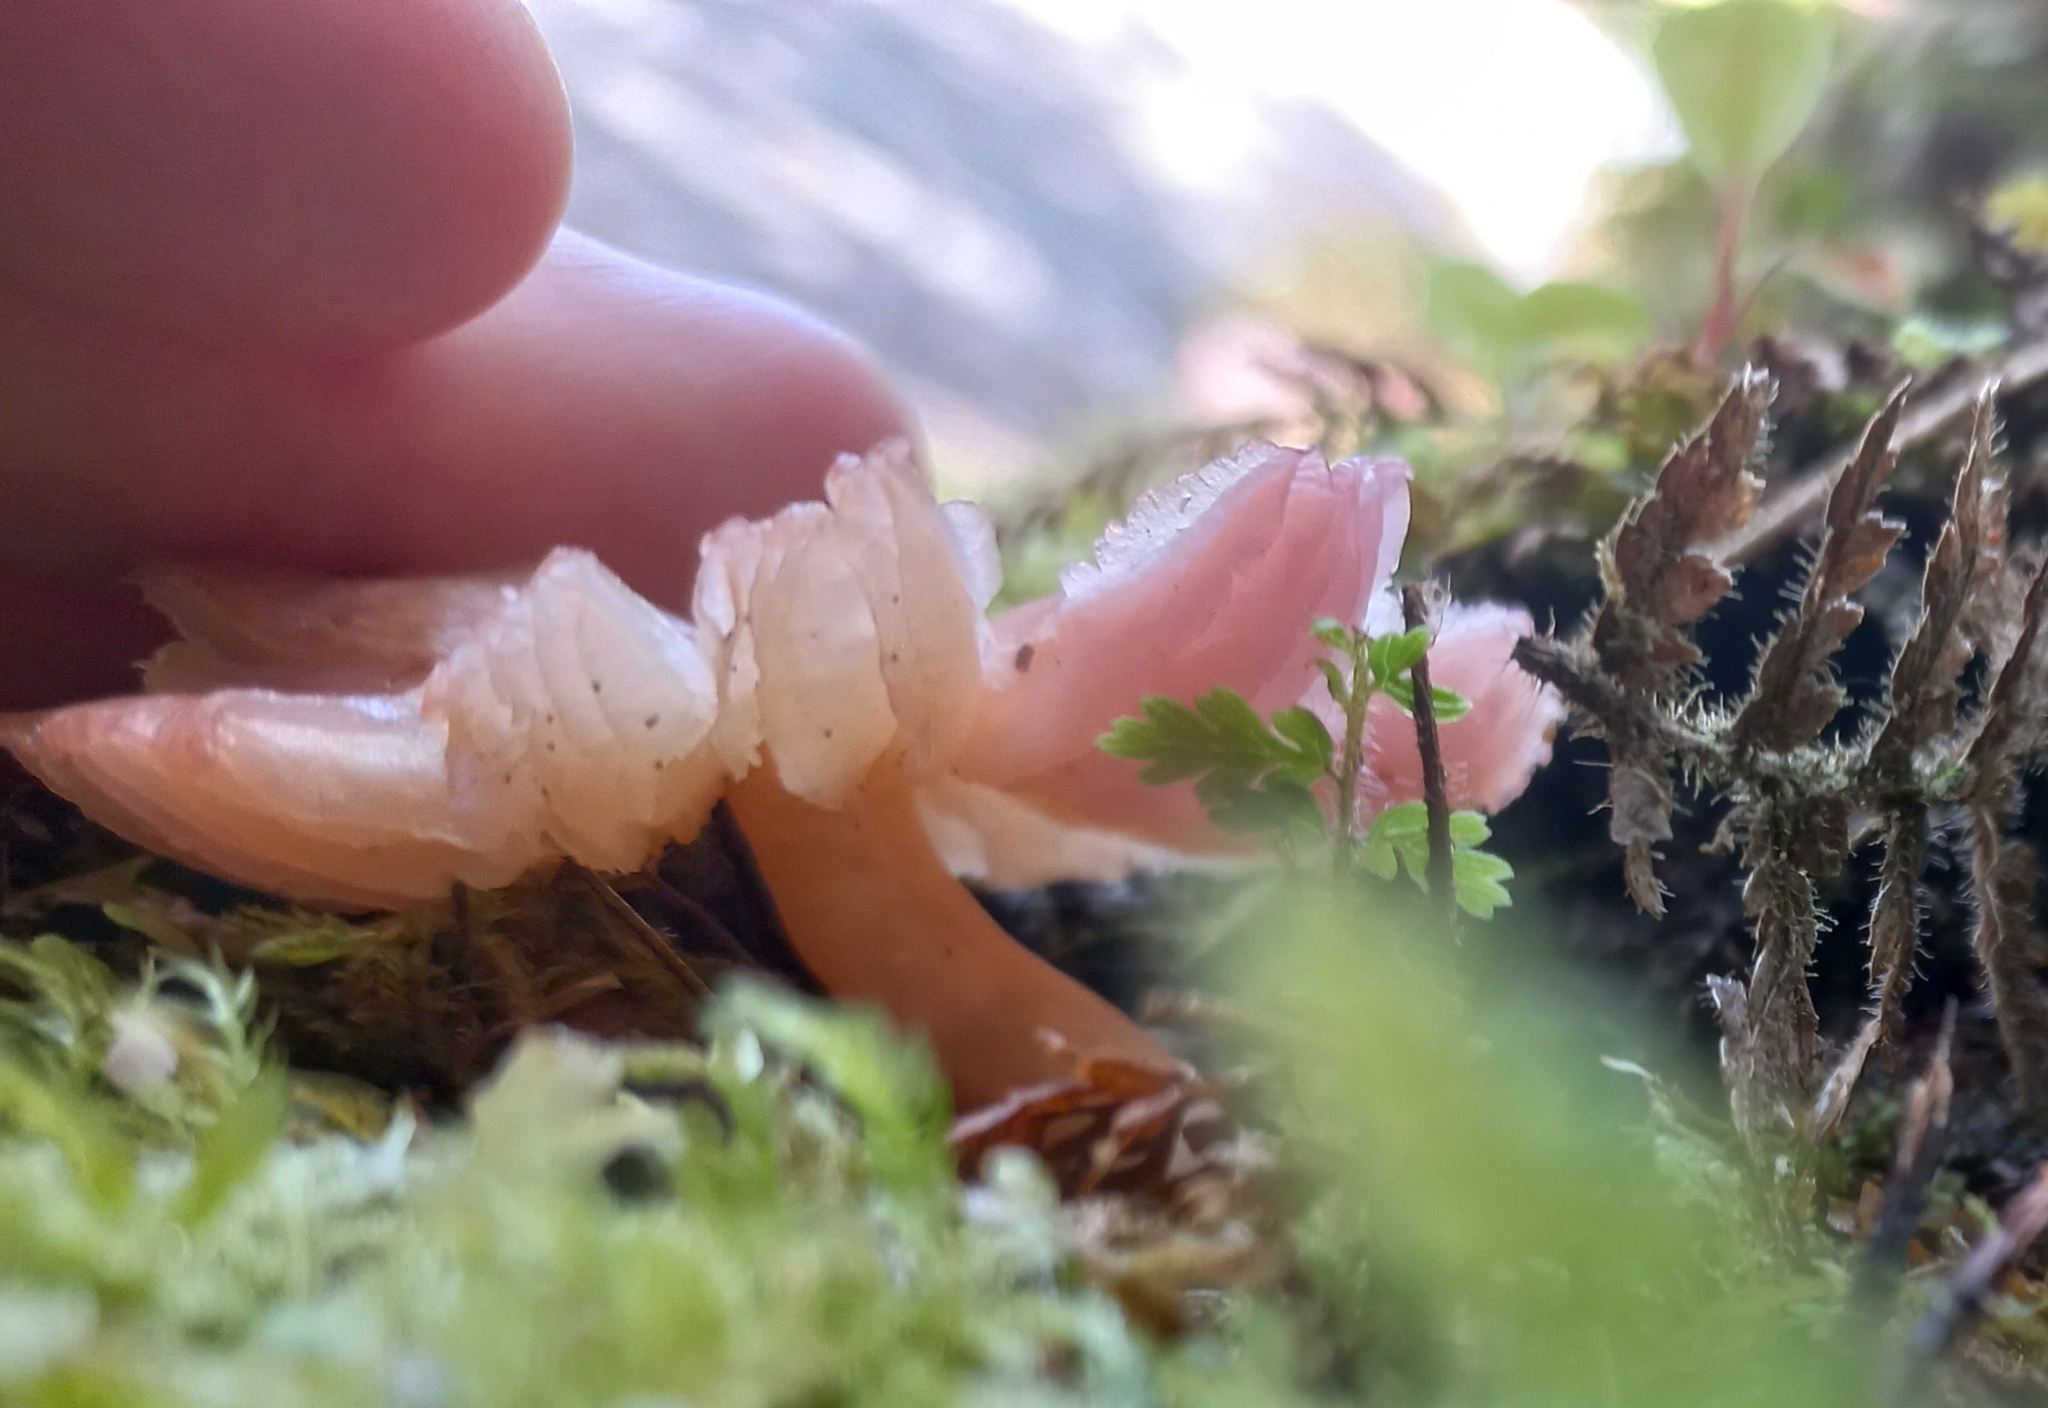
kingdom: Fungi
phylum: Basidiomycota
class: Agaricomycetes
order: Agaricales
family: Hygrophoraceae
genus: Humidicutis
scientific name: Humidicutis
